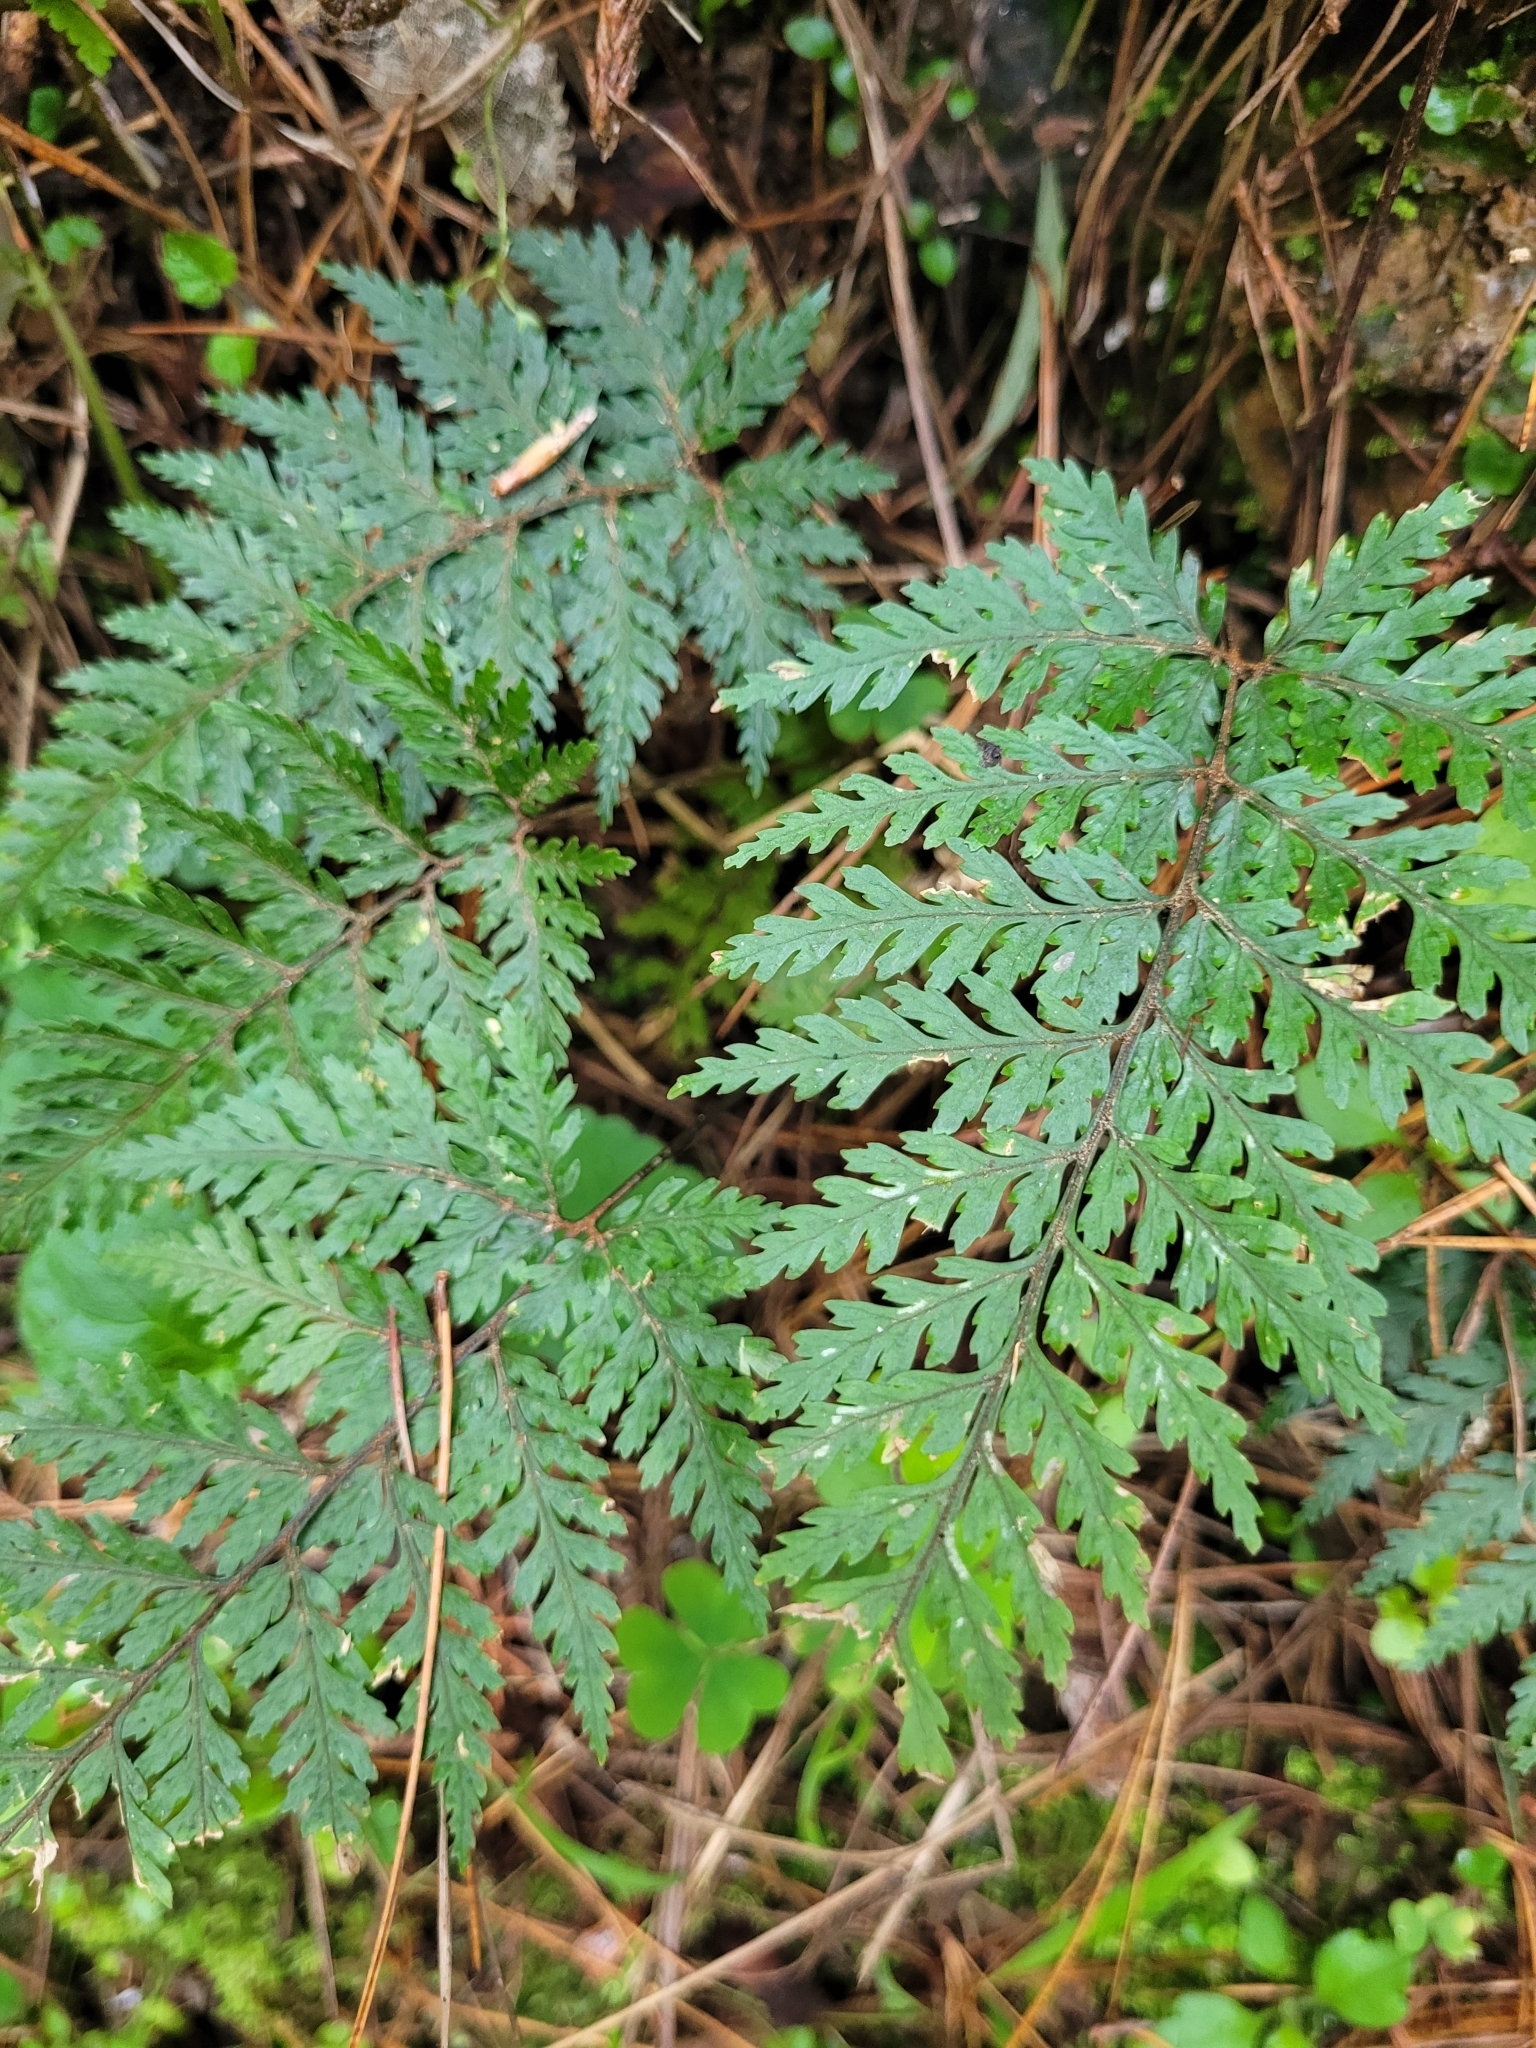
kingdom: Plantae
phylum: Tracheophyta
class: Polypodiopsida
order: Polypodiales
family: Dryopteridaceae
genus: Parapolystichum
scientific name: Parapolystichum glabellum
